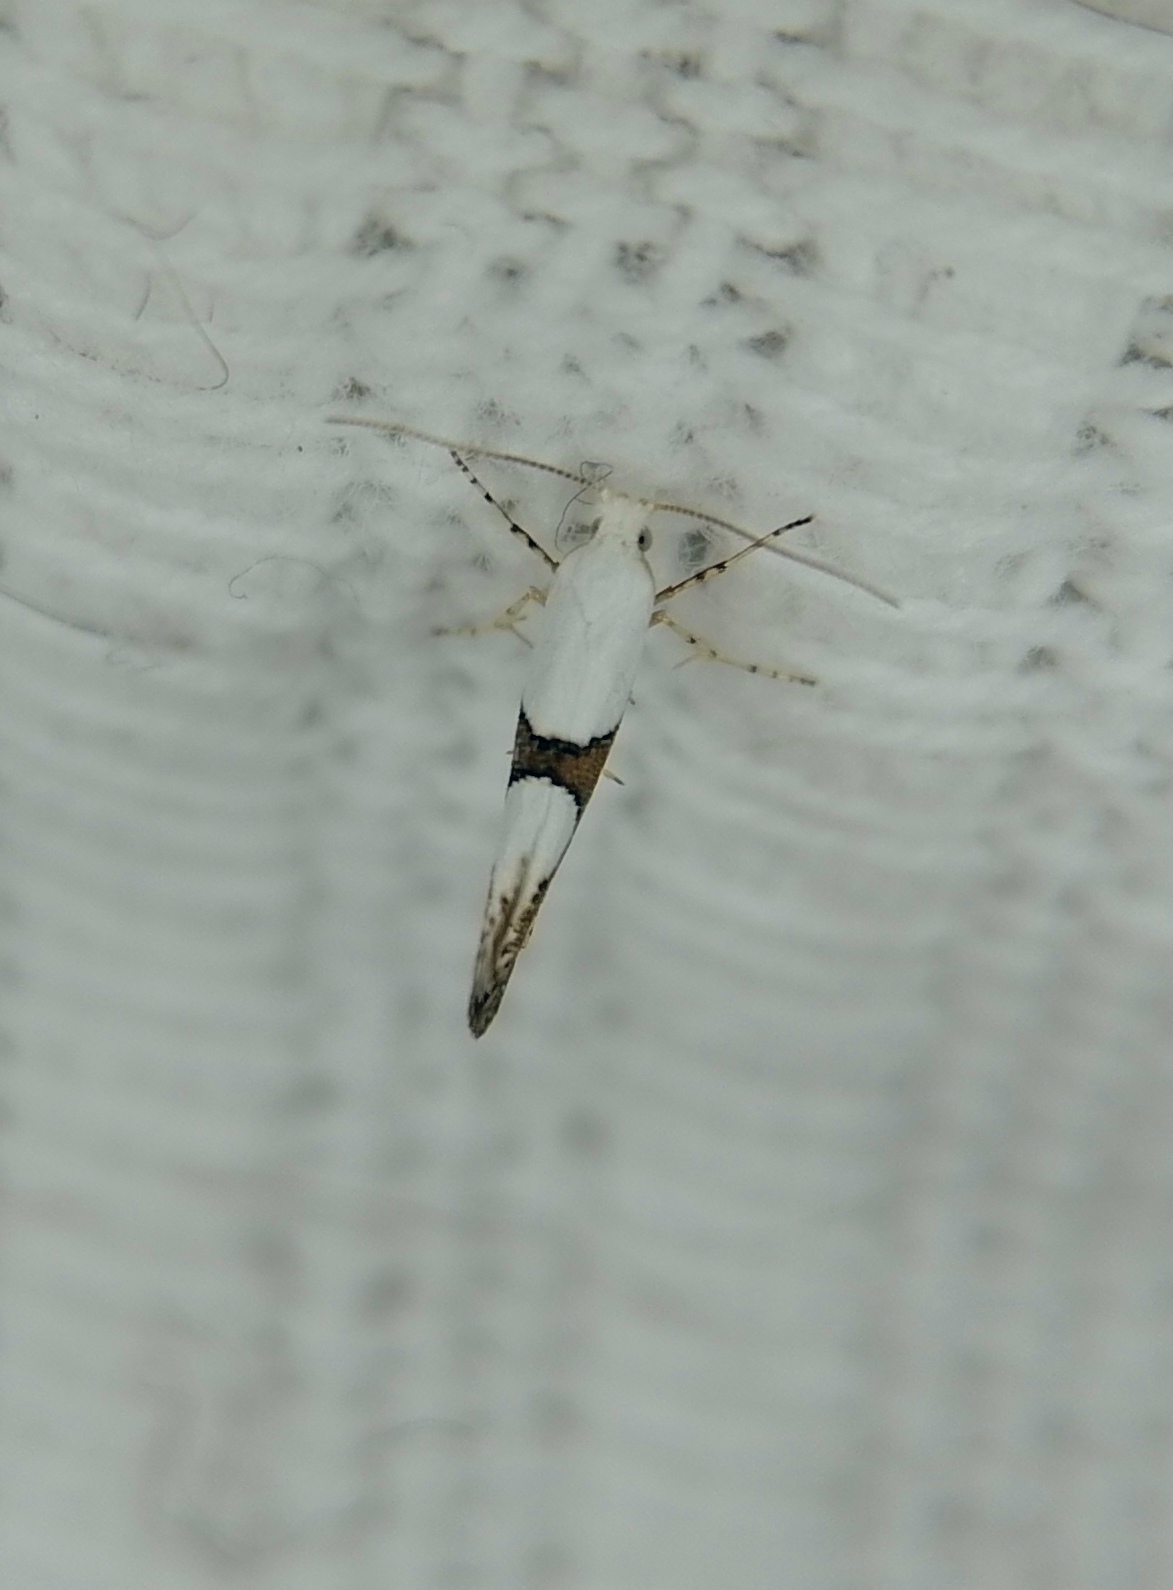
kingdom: Animalia
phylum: Arthropoda
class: Insecta
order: Lepidoptera
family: Argyresthiidae
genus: Argyresthia
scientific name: Argyresthia ivella
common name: Gold-four argent
